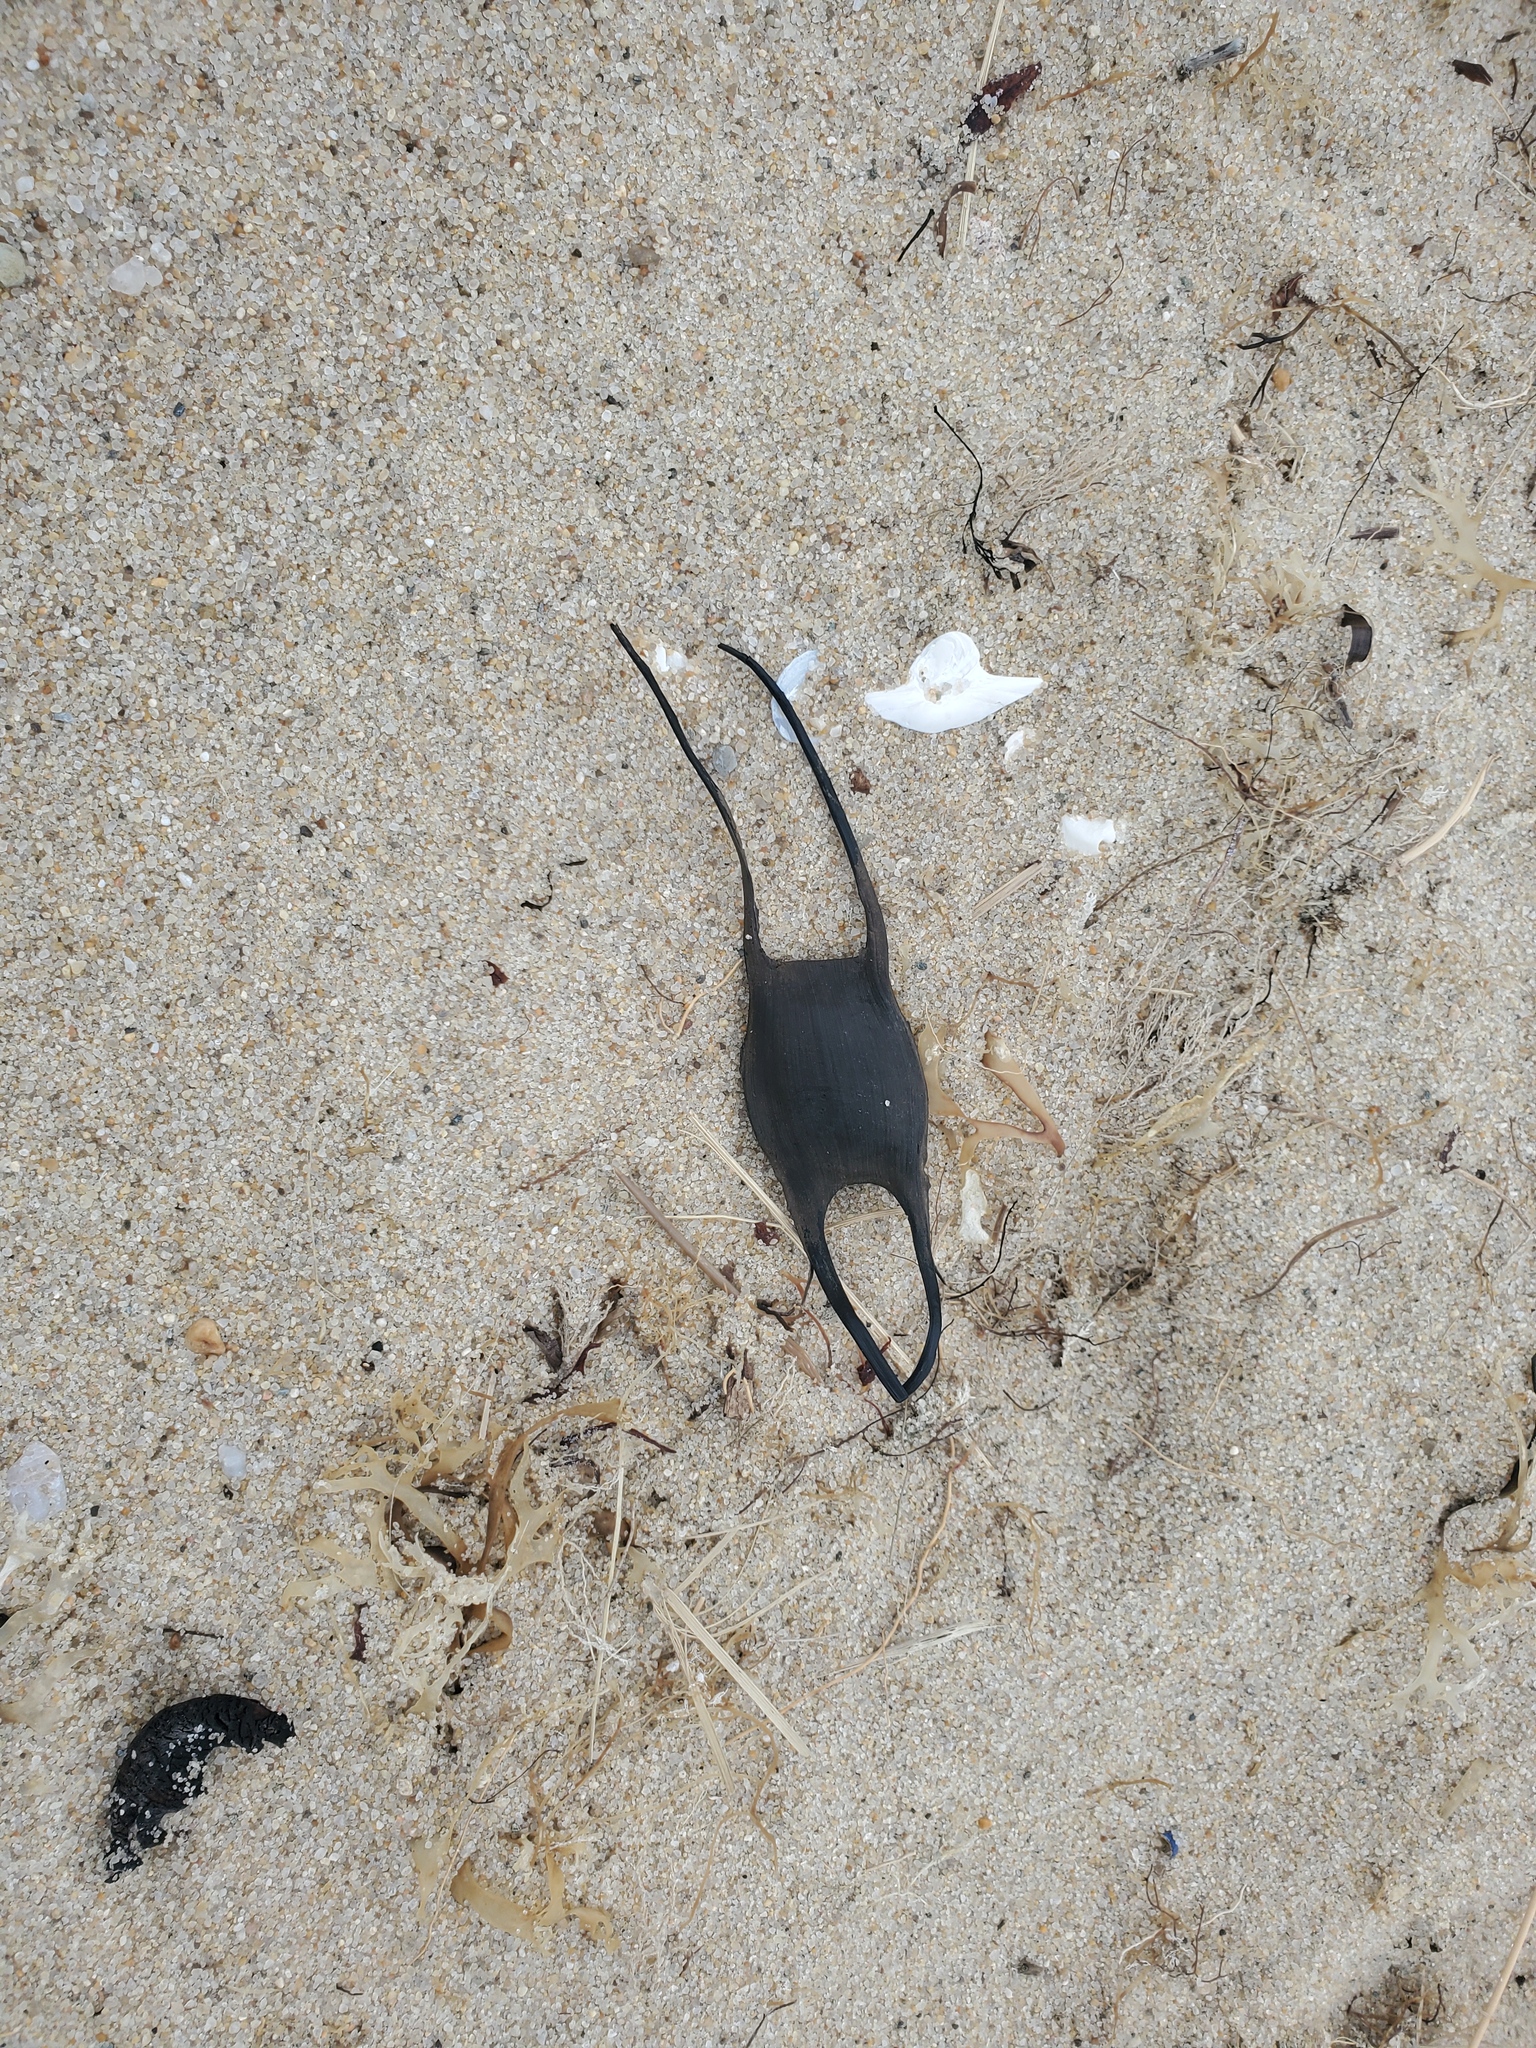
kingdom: Animalia
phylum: Chordata
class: Elasmobranchii
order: Rajiformes
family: Rajidae
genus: Leucoraja
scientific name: Leucoraja erinacea
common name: Little skate
